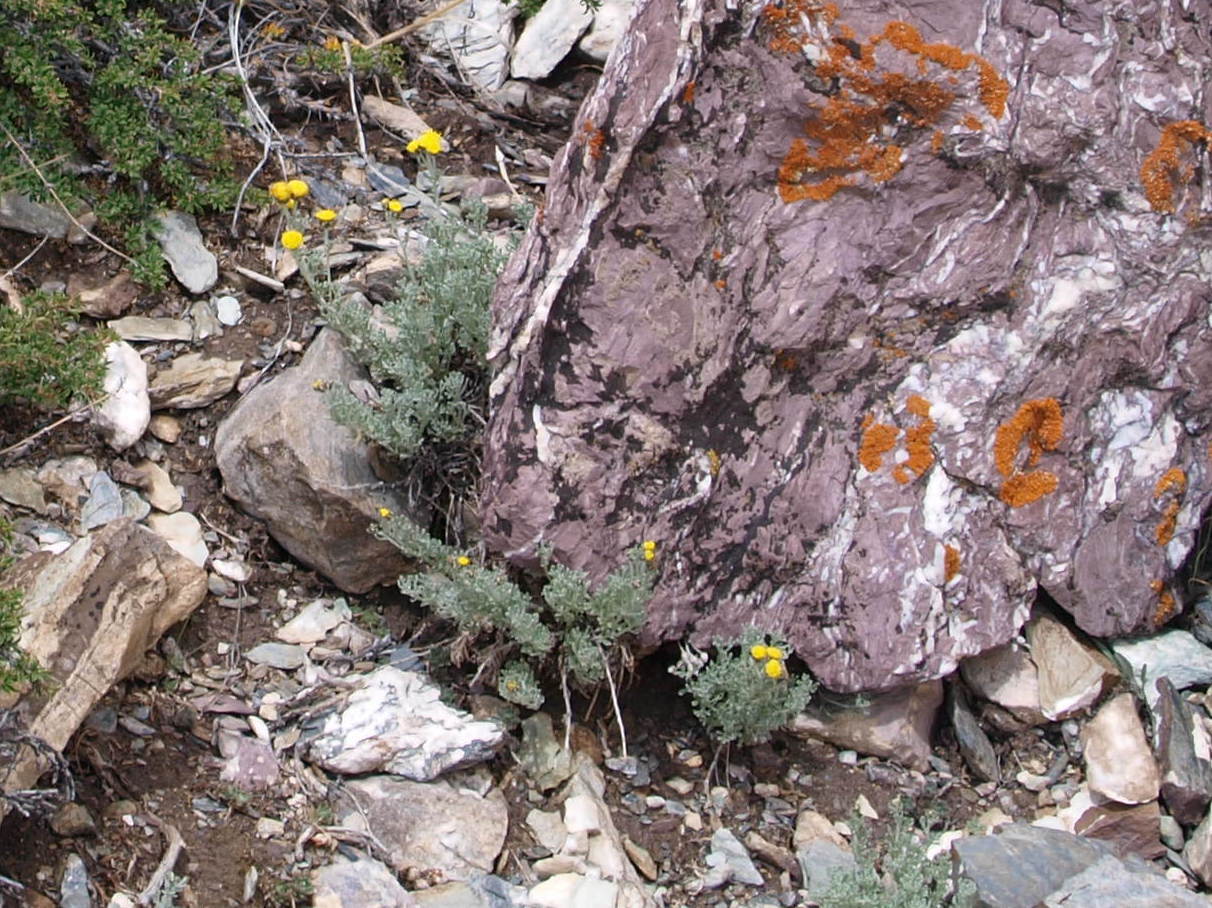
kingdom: Plantae
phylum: Tracheophyta
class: Magnoliopsida
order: Asterales
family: Asteraceae
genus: Ajania
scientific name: Ajania tibetica
